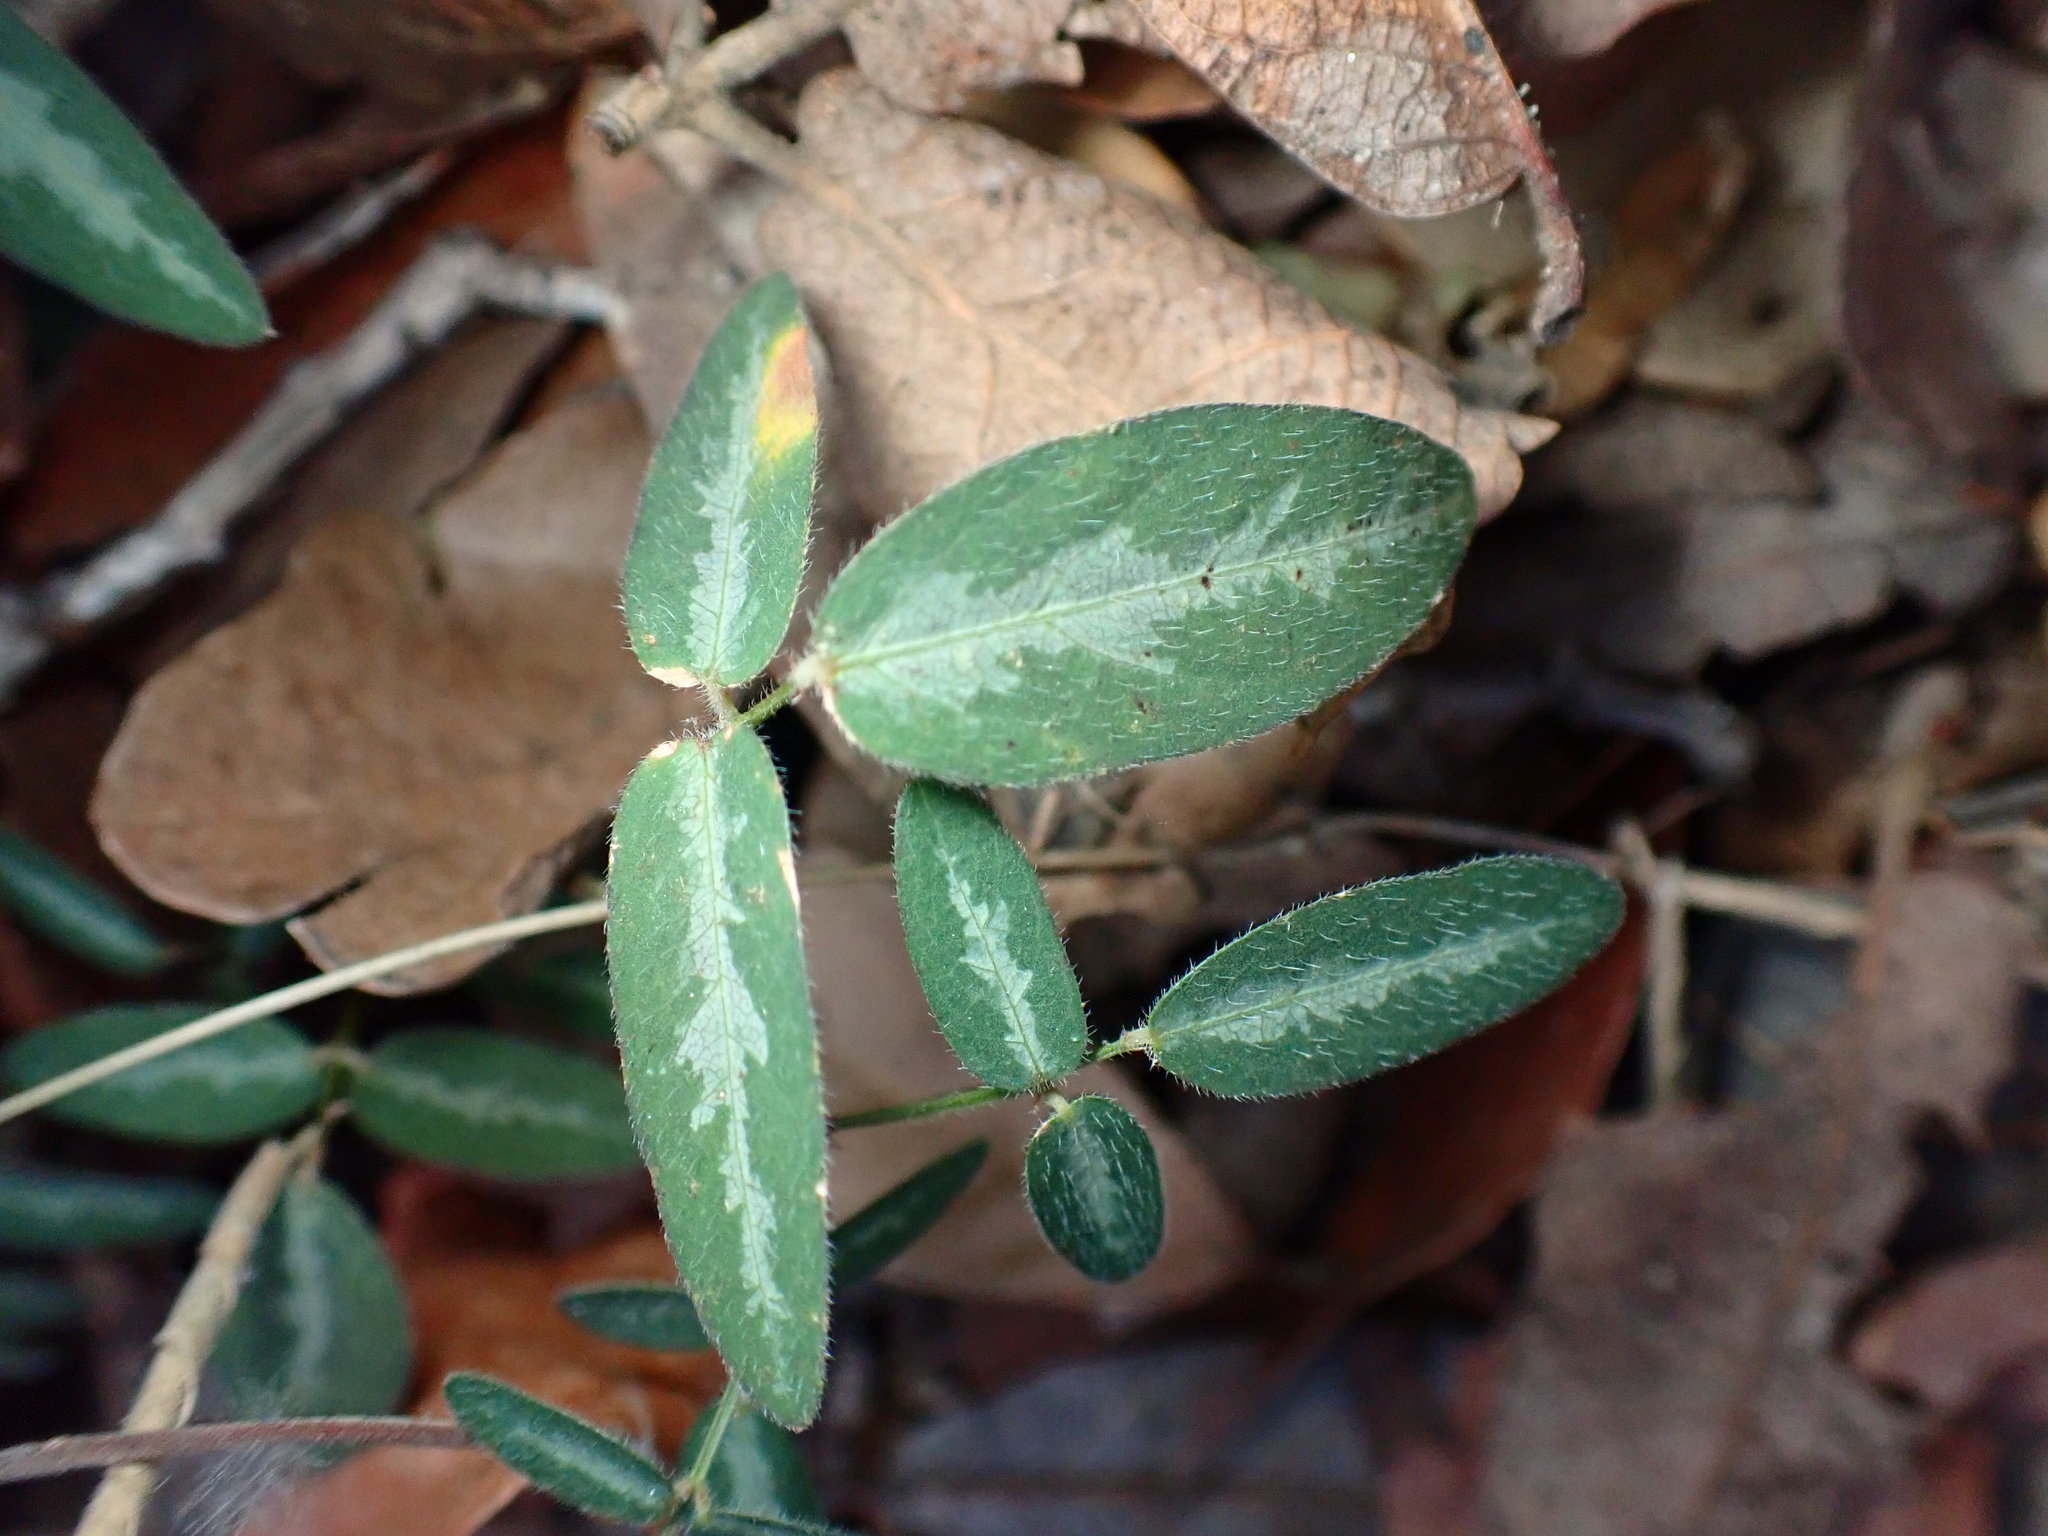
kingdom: Plantae
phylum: Tracheophyta
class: Magnoliopsida
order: Fabales
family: Fabaceae
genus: Desmodium
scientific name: Desmodium batocaulon
